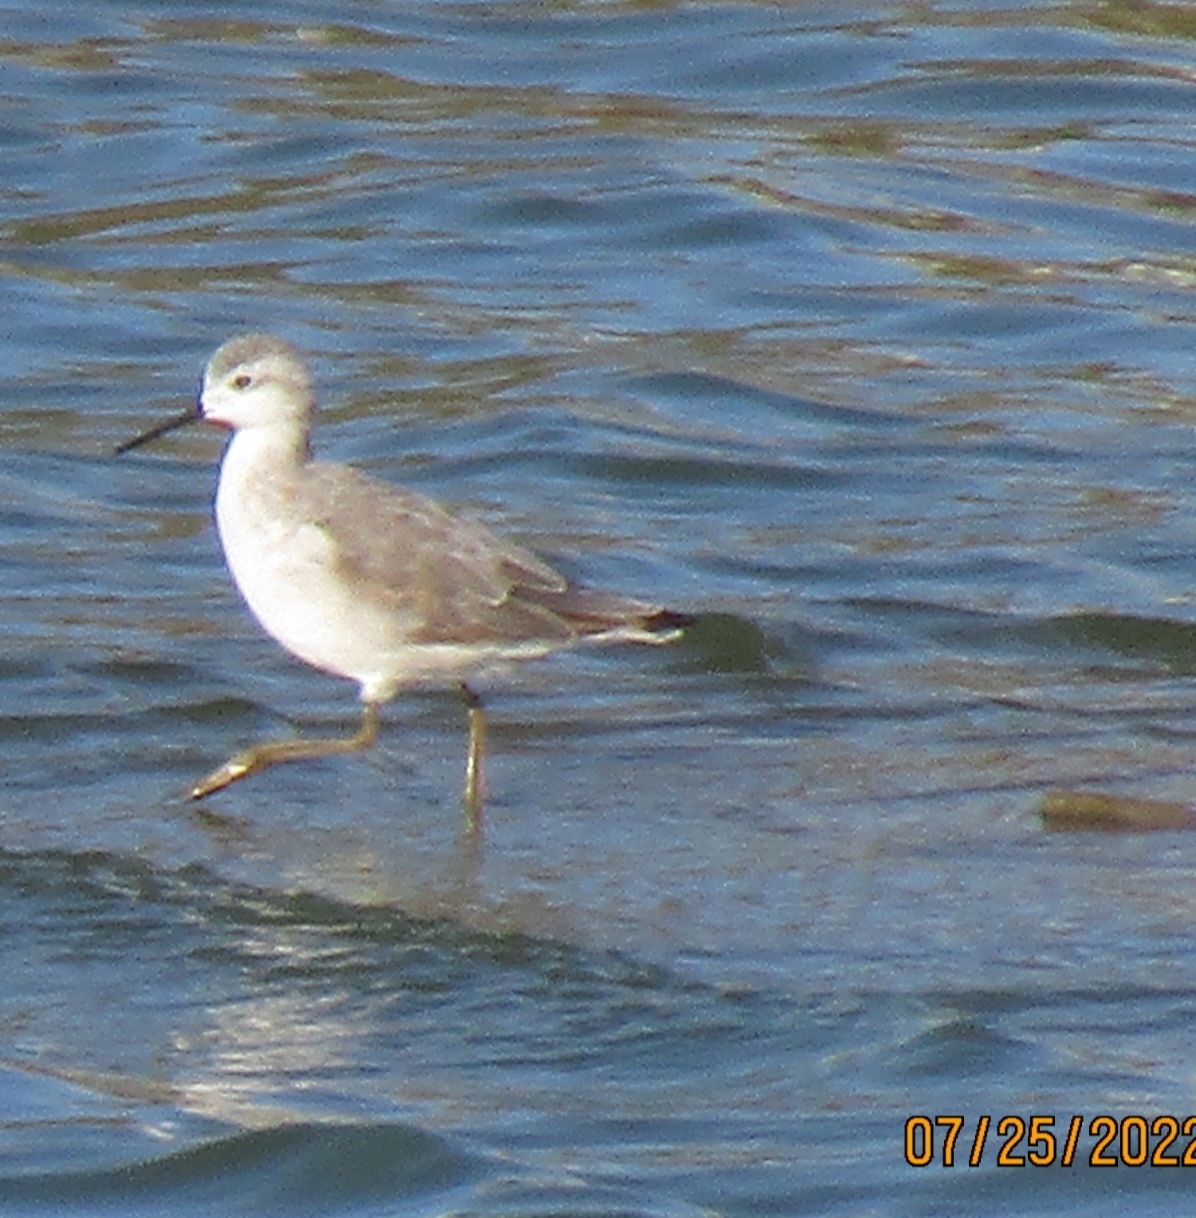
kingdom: Animalia
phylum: Chordata
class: Aves
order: Charadriiformes
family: Scolopacidae
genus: Phalaropus
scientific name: Phalaropus tricolor
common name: Wilson's phalarope
